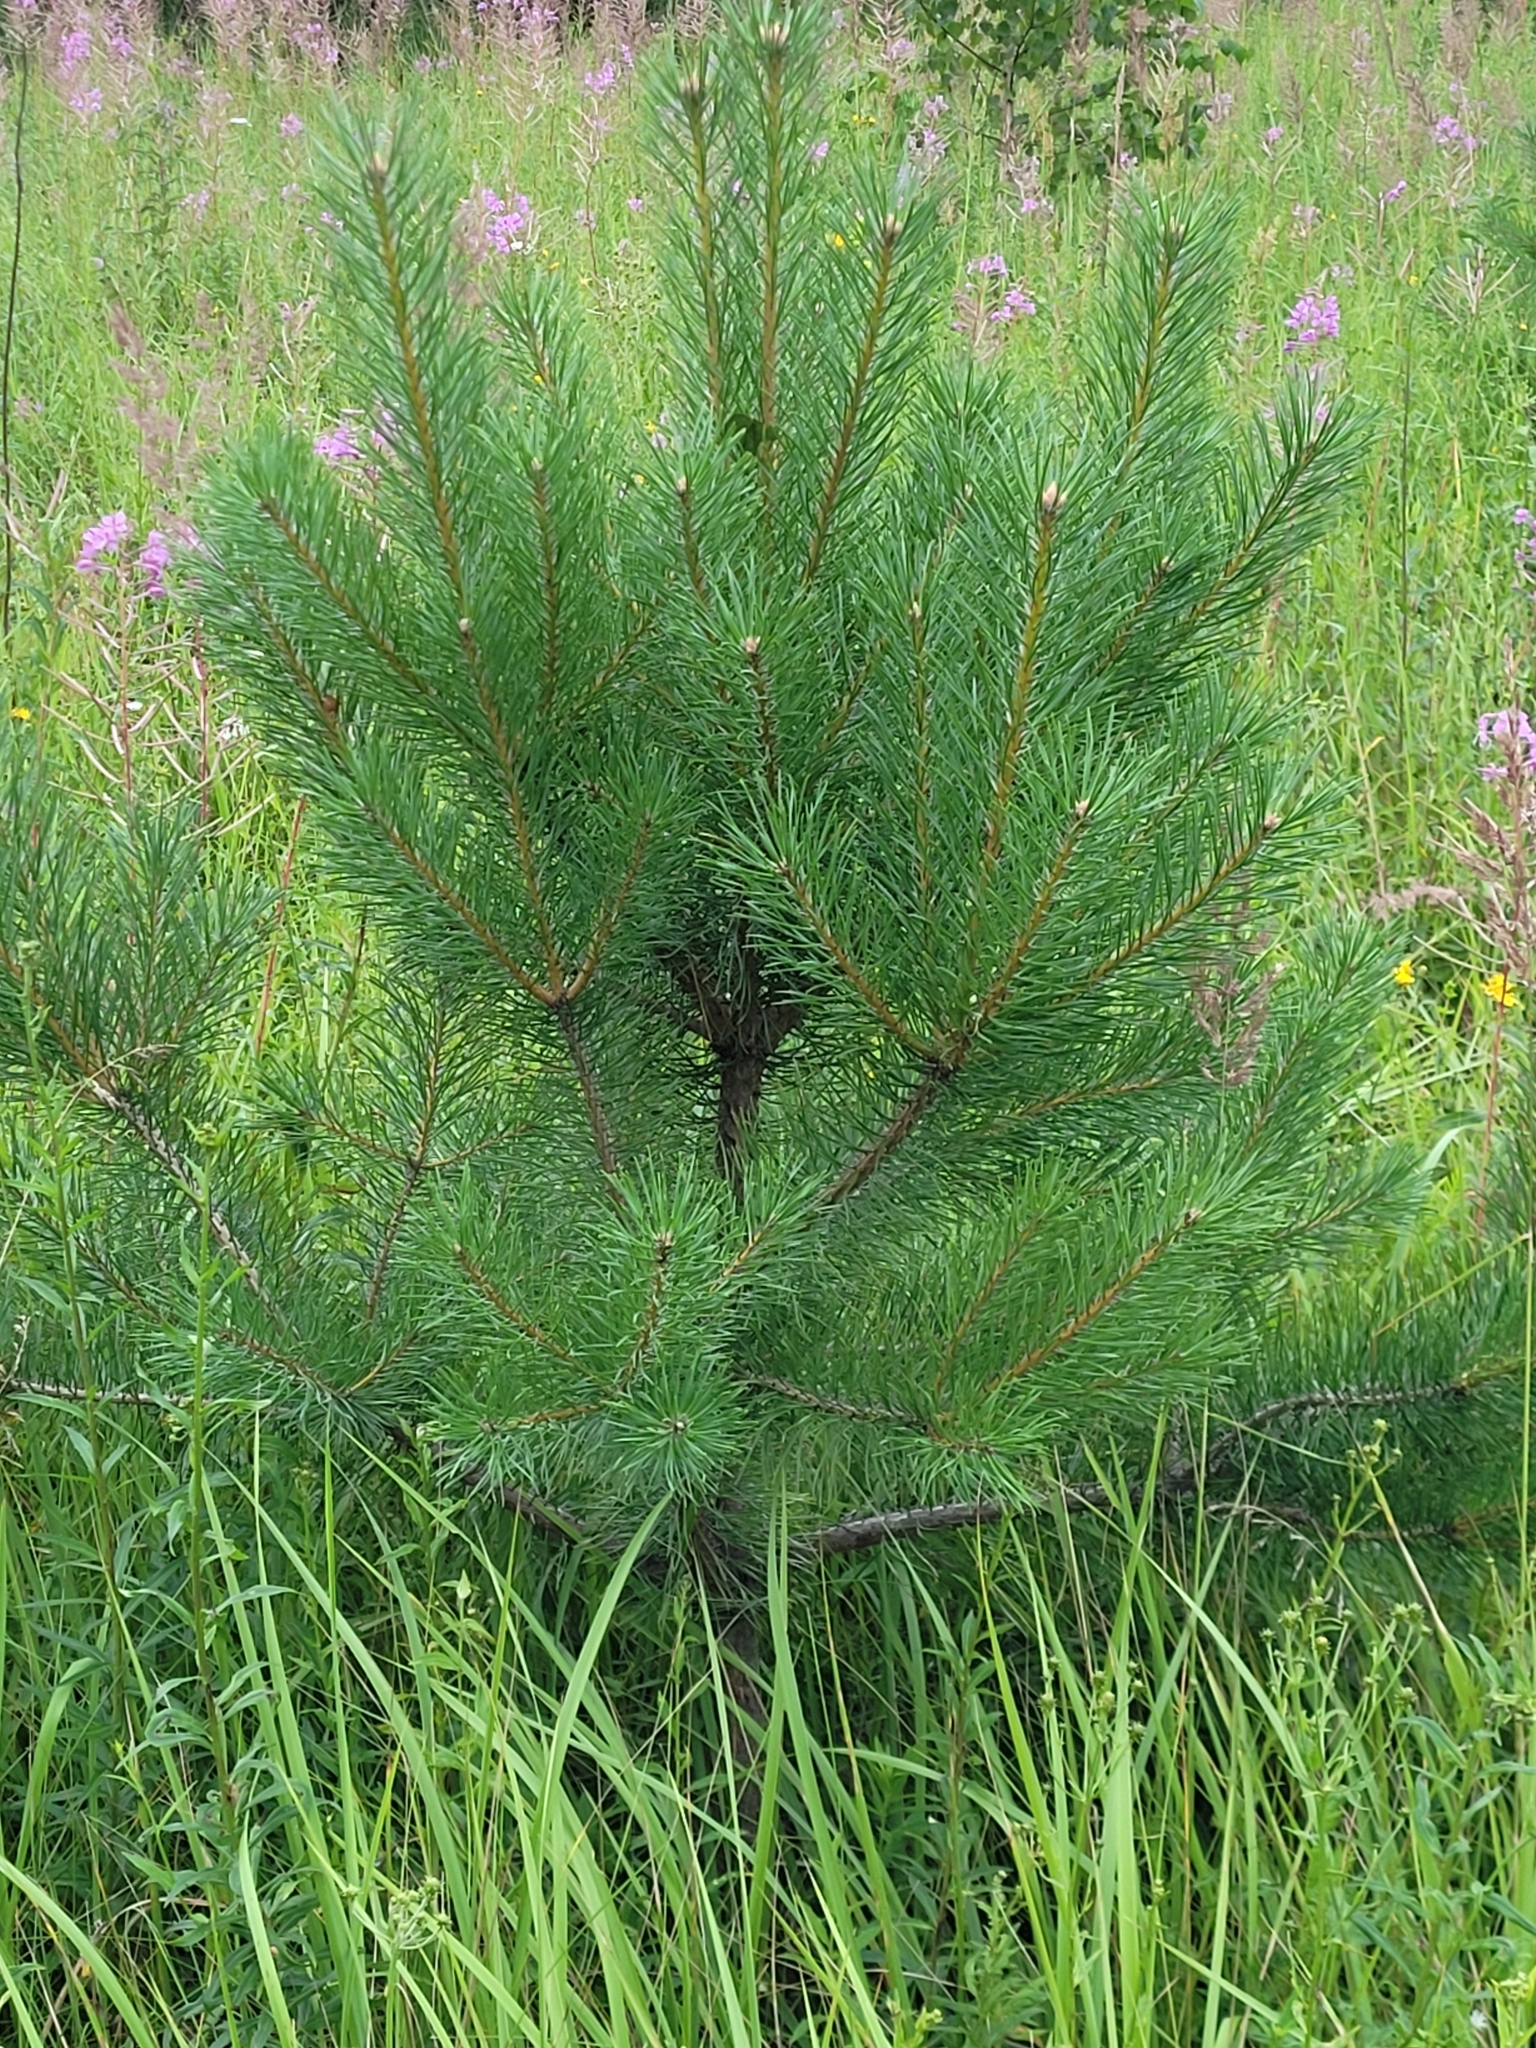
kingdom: Plantae
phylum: Tracheophyta
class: Pinopsida
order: Pinales
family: Pinaceae
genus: Pinus
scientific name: Pinus sylvestris
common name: Scots pine
